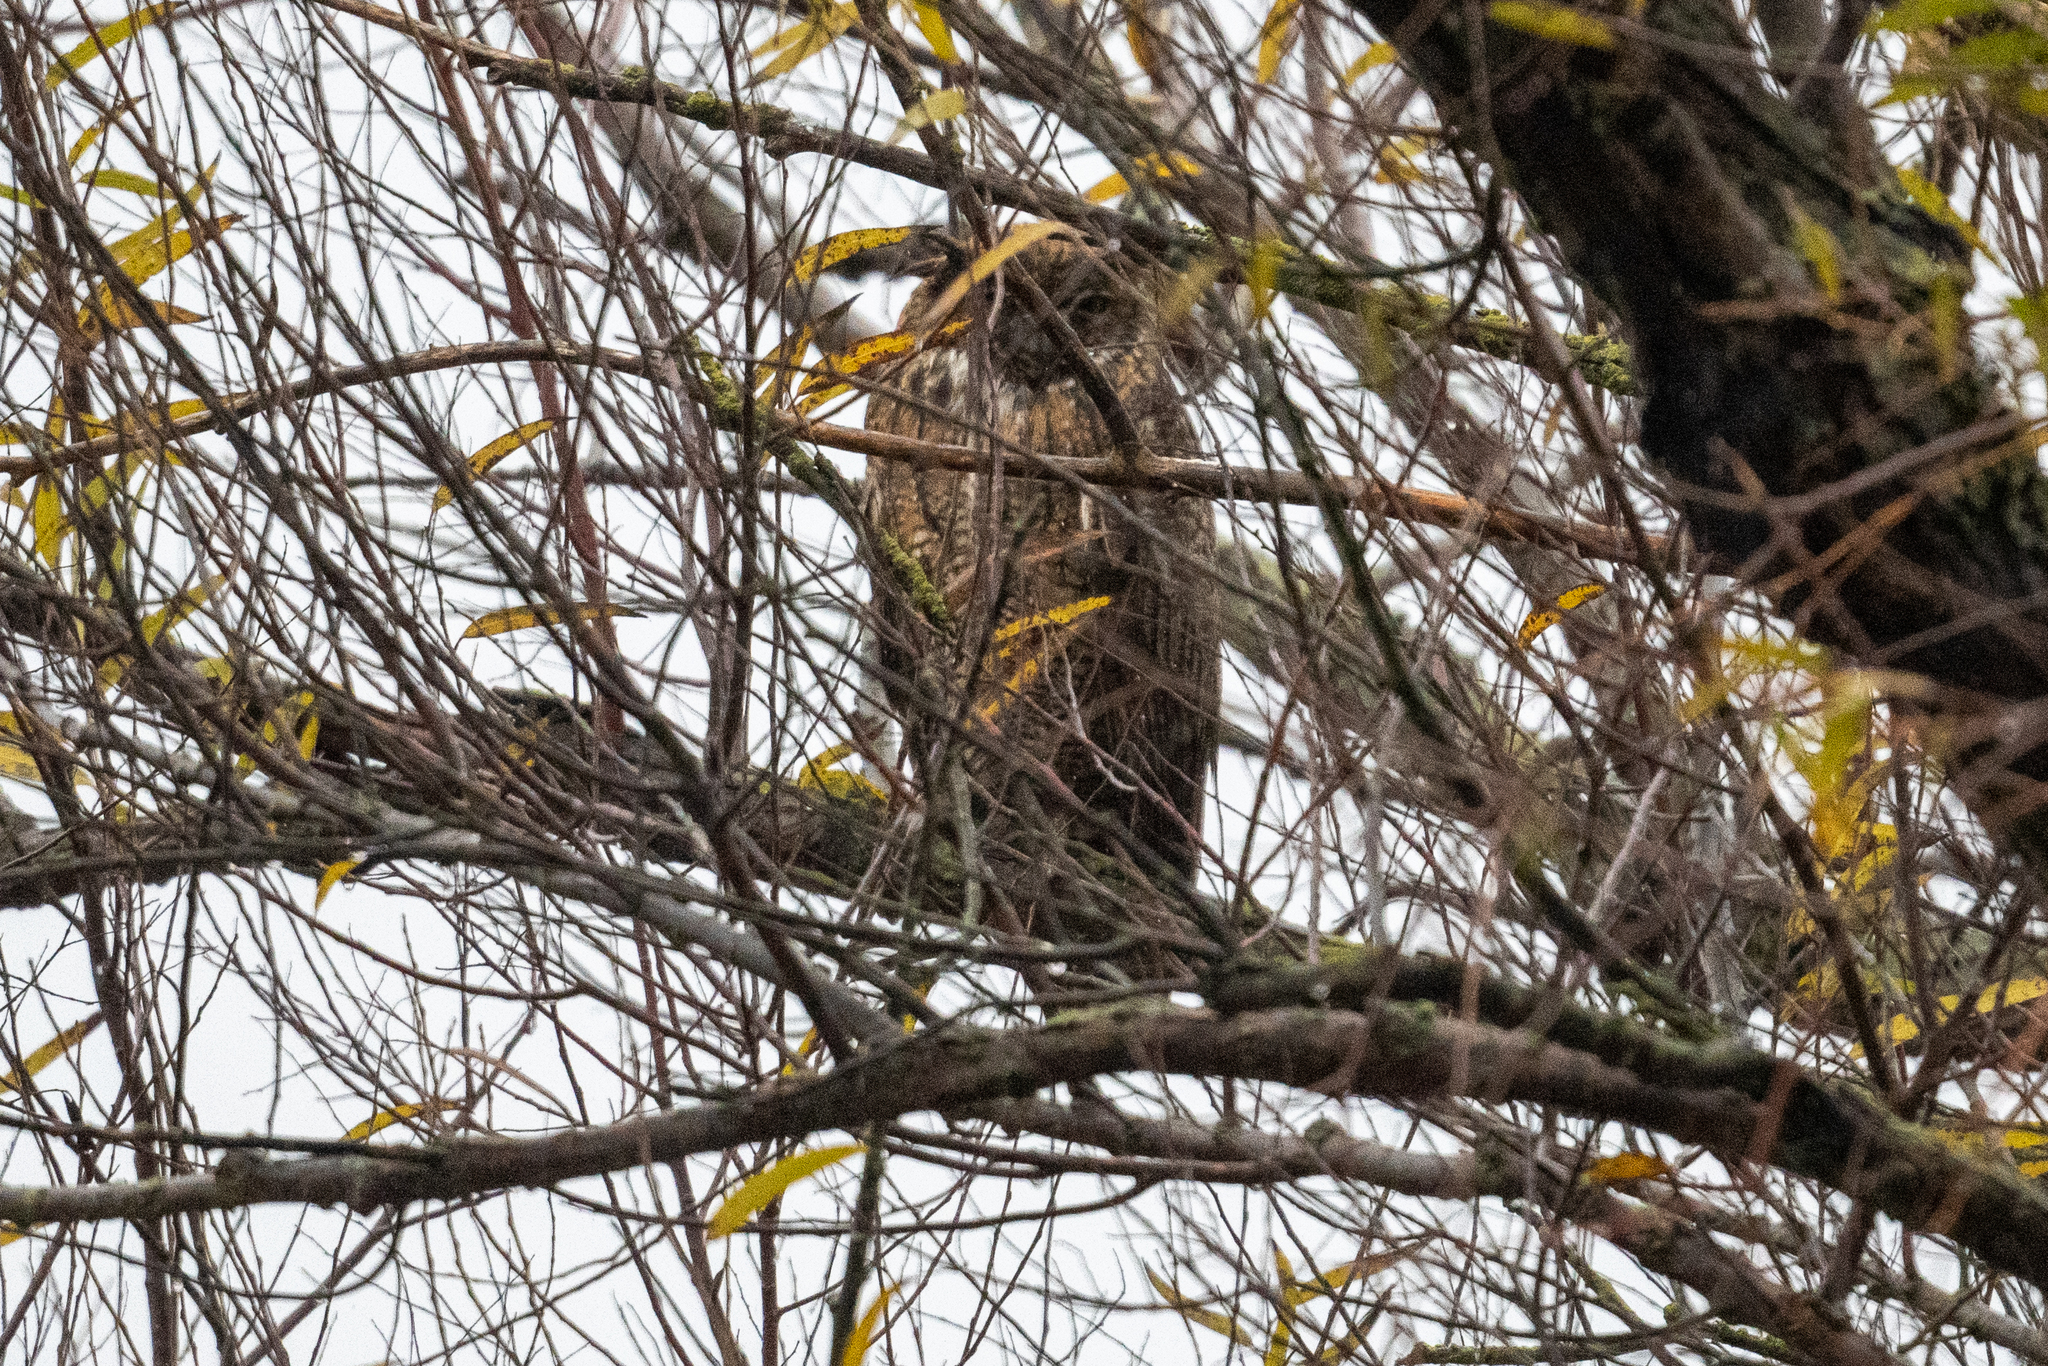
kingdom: Animalia
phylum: Chordata
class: Aves
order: Strigiformes
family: Strigidae
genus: Bubo
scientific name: Bubo virginianus
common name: Great horned owl
